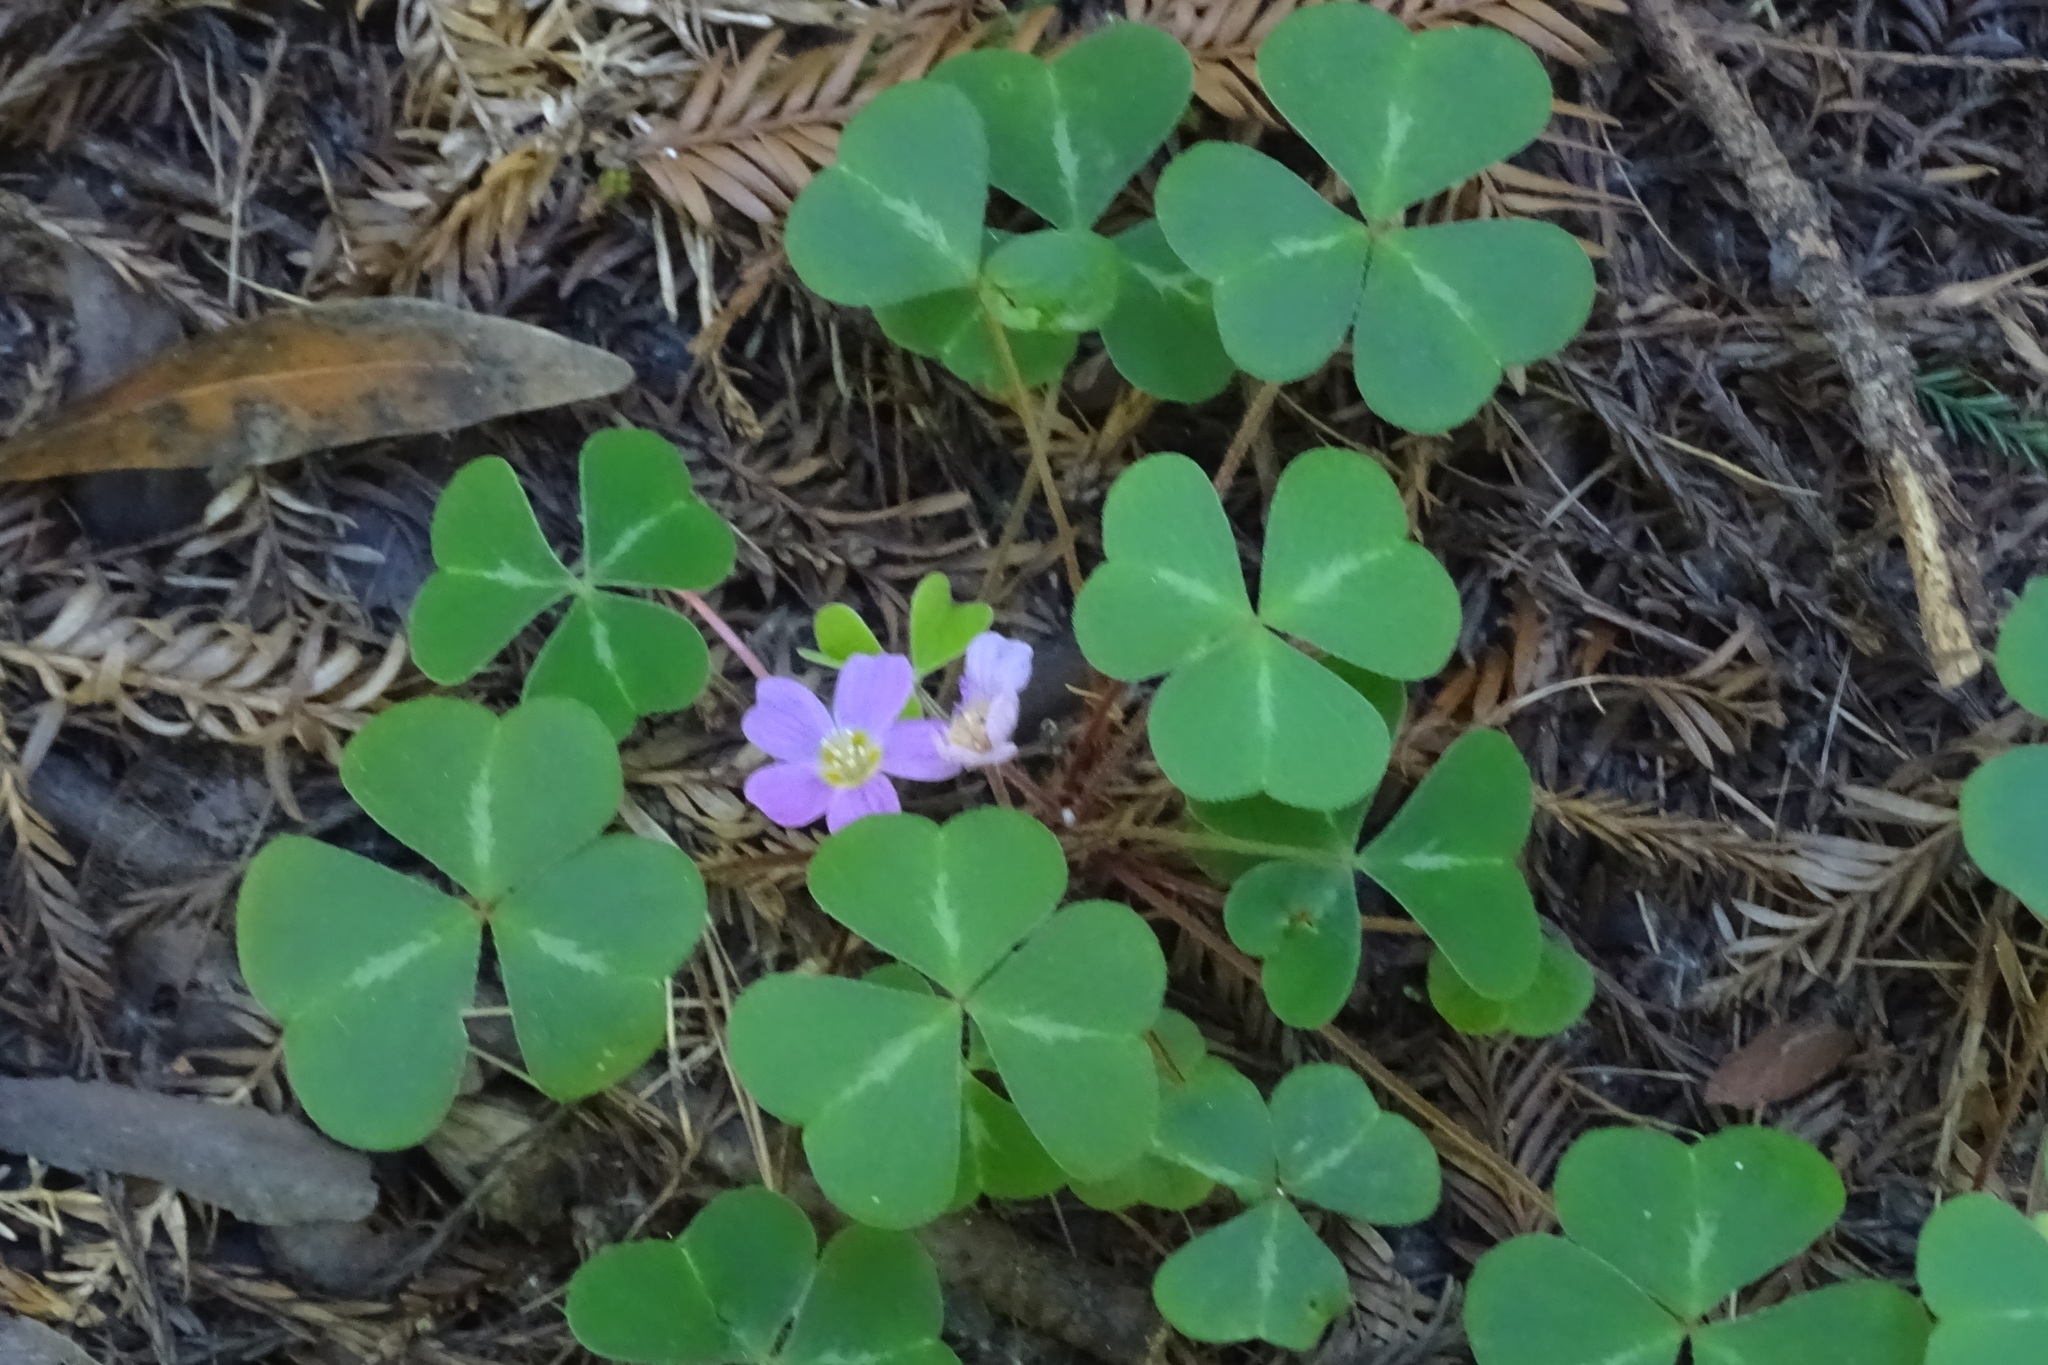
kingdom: Plantae
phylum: Tracheophyta
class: Magnoliopsida
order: Oxalidales
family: Oxalidaceae
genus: Oxalis
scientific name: Oxalis oregana
